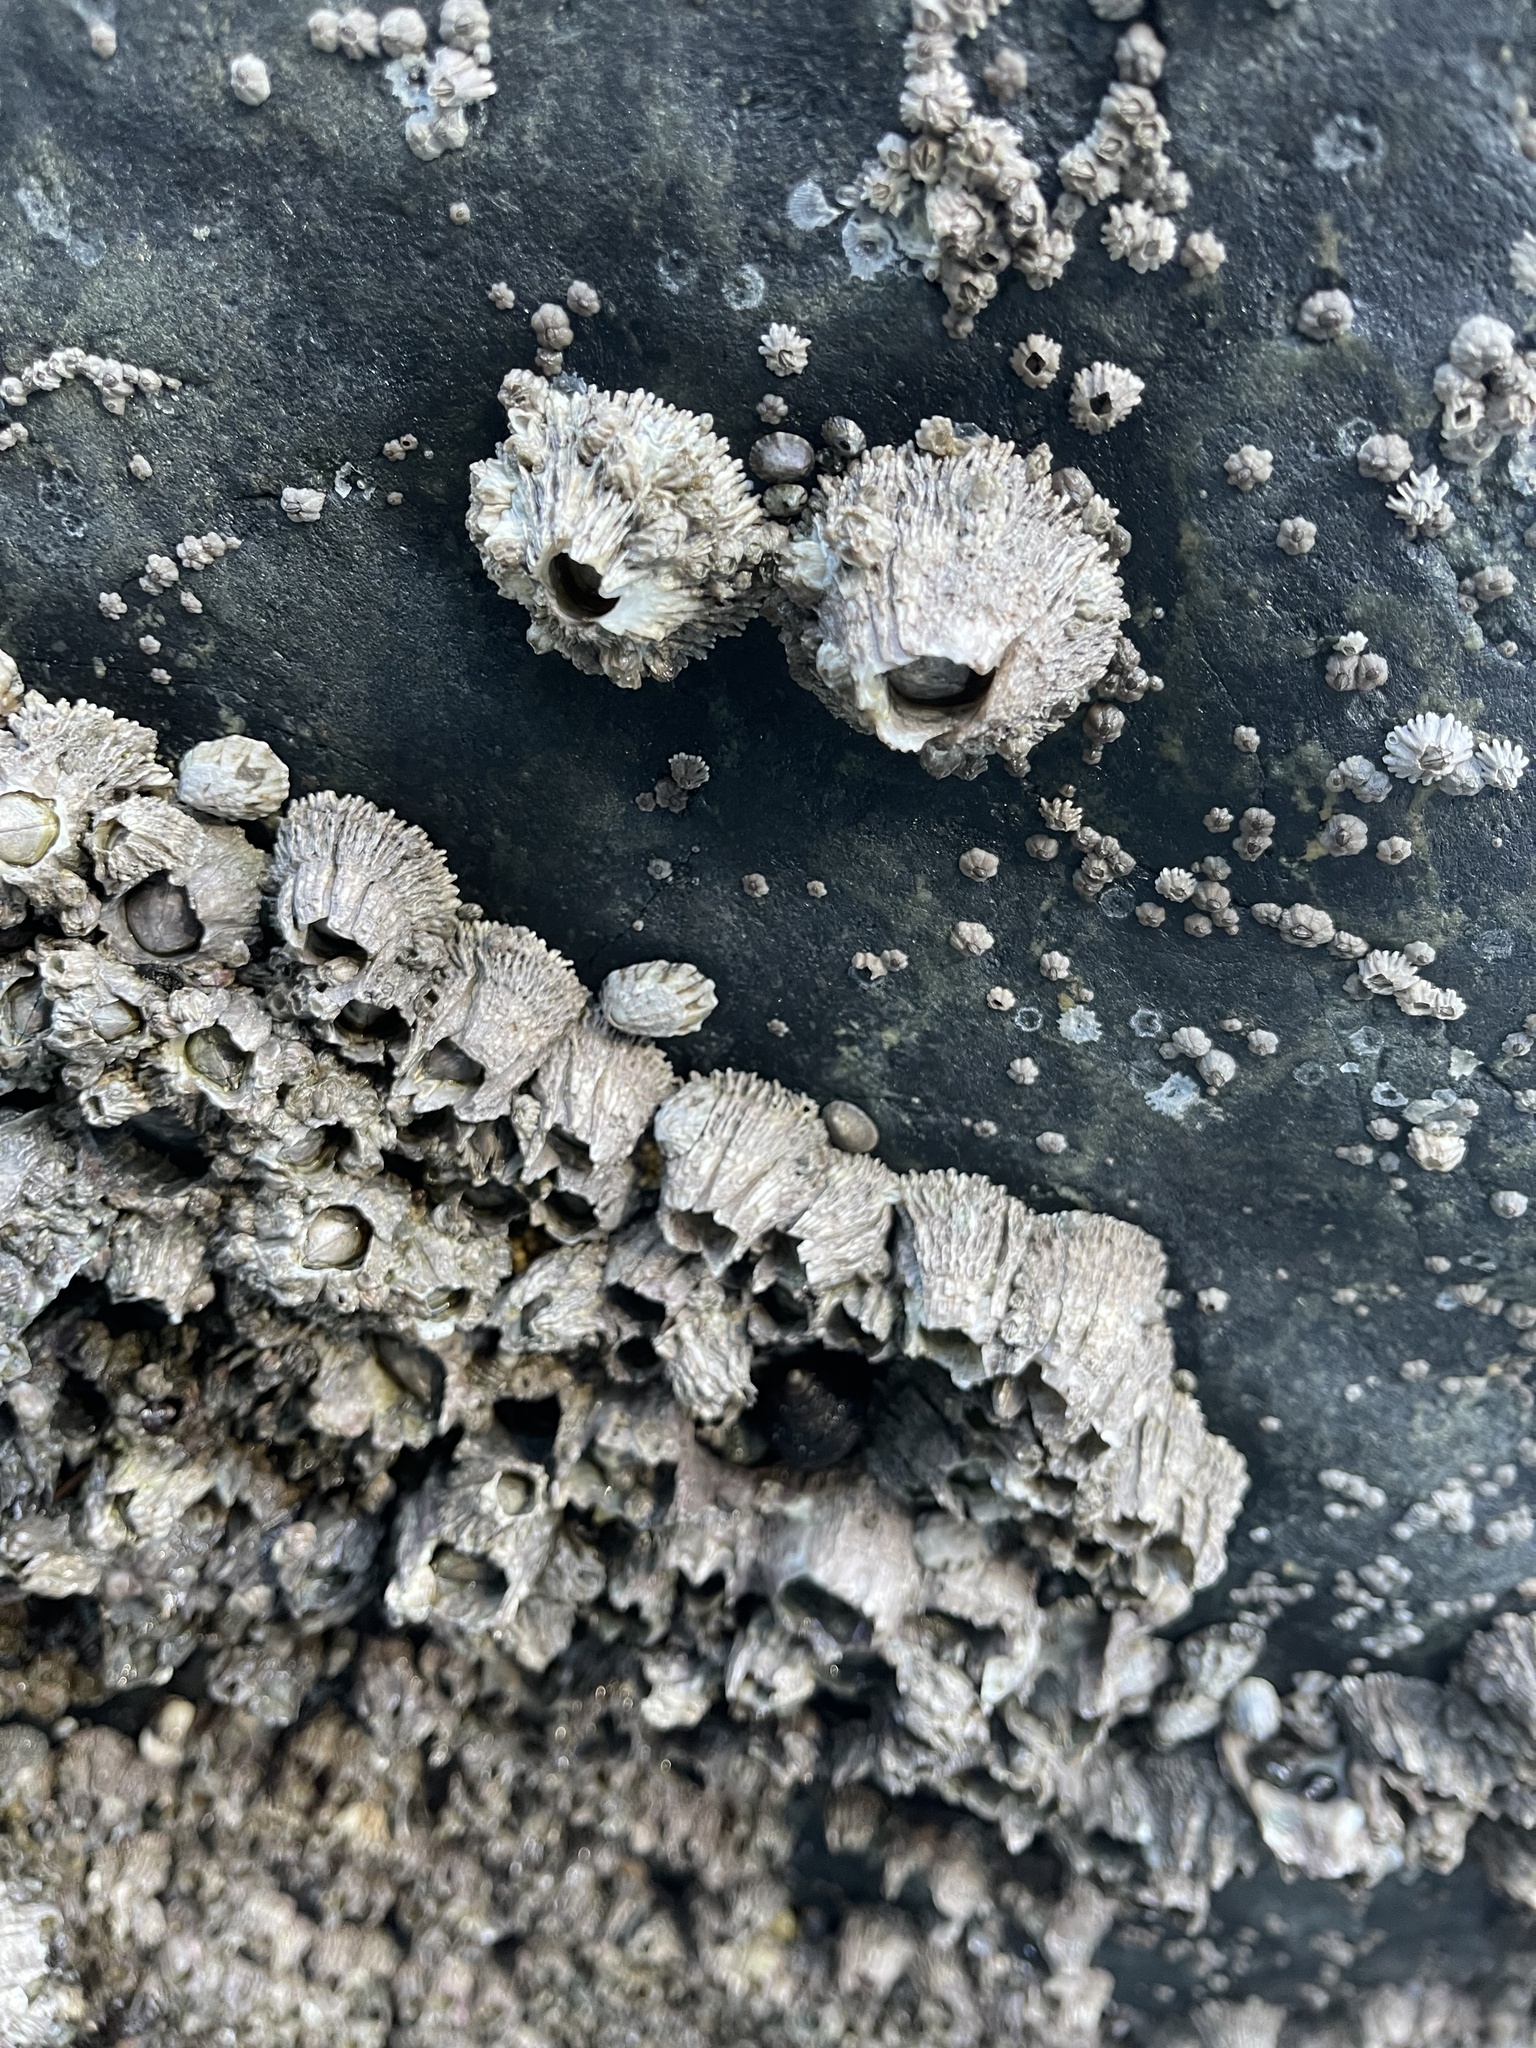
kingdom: Animalia
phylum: Arthropoda
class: Maxillopoda
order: Sessilia
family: Archaeobalanidae
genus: Semibalanus
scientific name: Semibalanus cariosus
